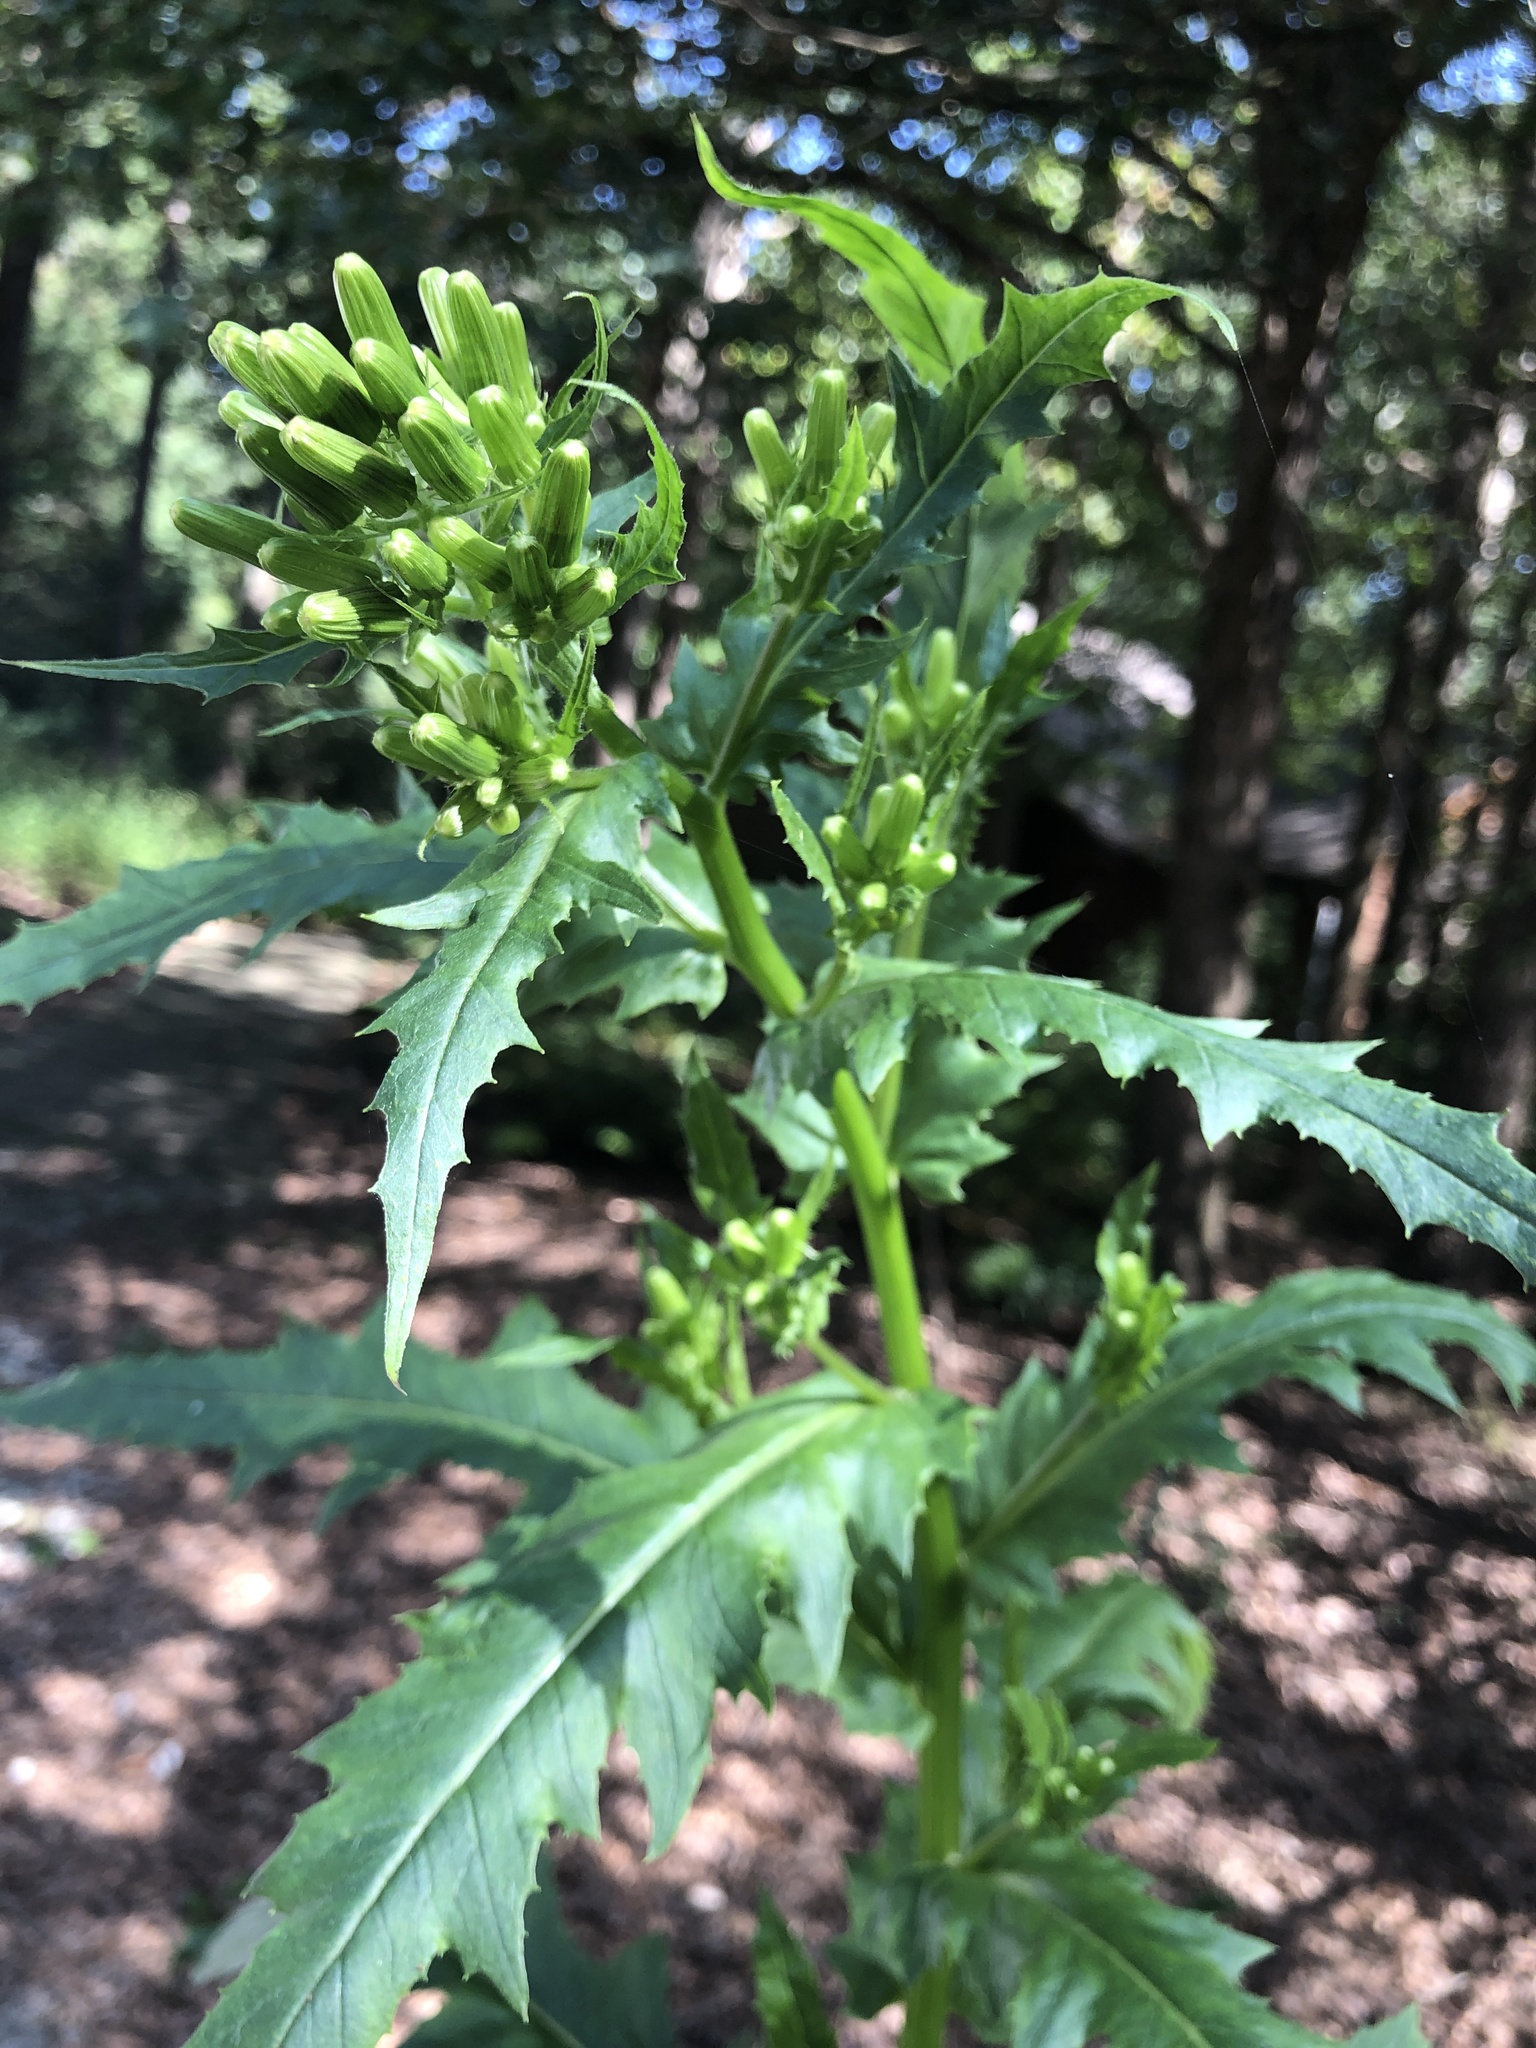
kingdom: Plantae
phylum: Tracheophyta
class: Magnoliopsida
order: Asterales
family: Asteraceae
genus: Erechtites
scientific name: Erechtites hieraciifolius
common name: American burnweed
